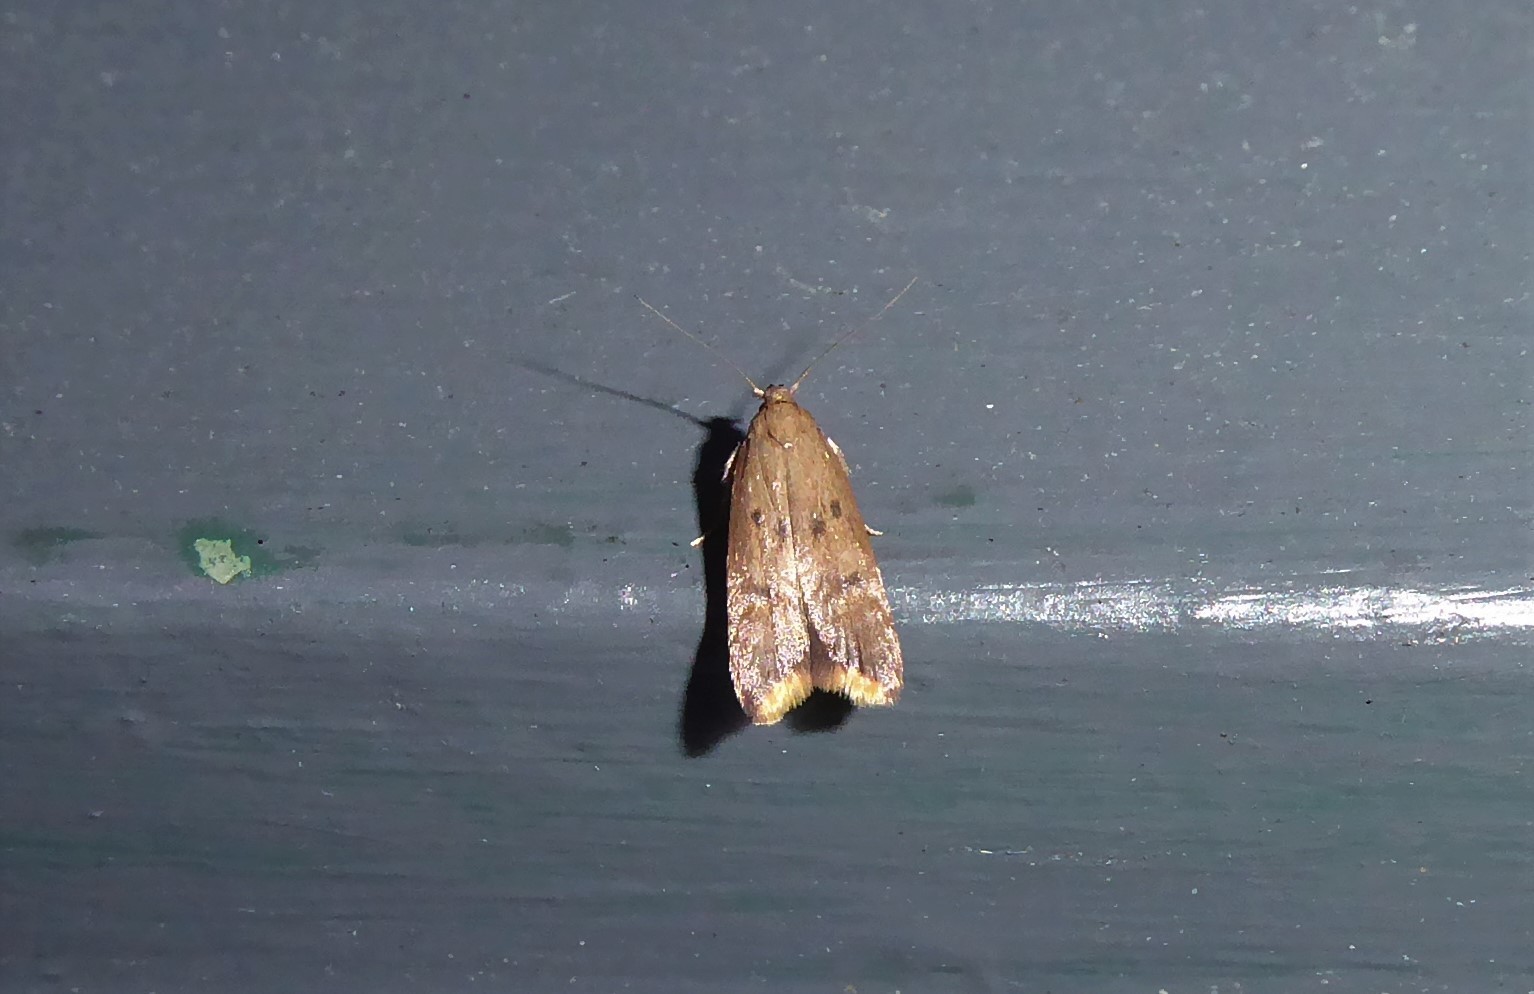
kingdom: Animalia
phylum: Arthropoda
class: Insecta
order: Lepidoptera
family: Oecophoridae
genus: Tachystola
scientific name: Tachystola acroxantha
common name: Ruddy streak
